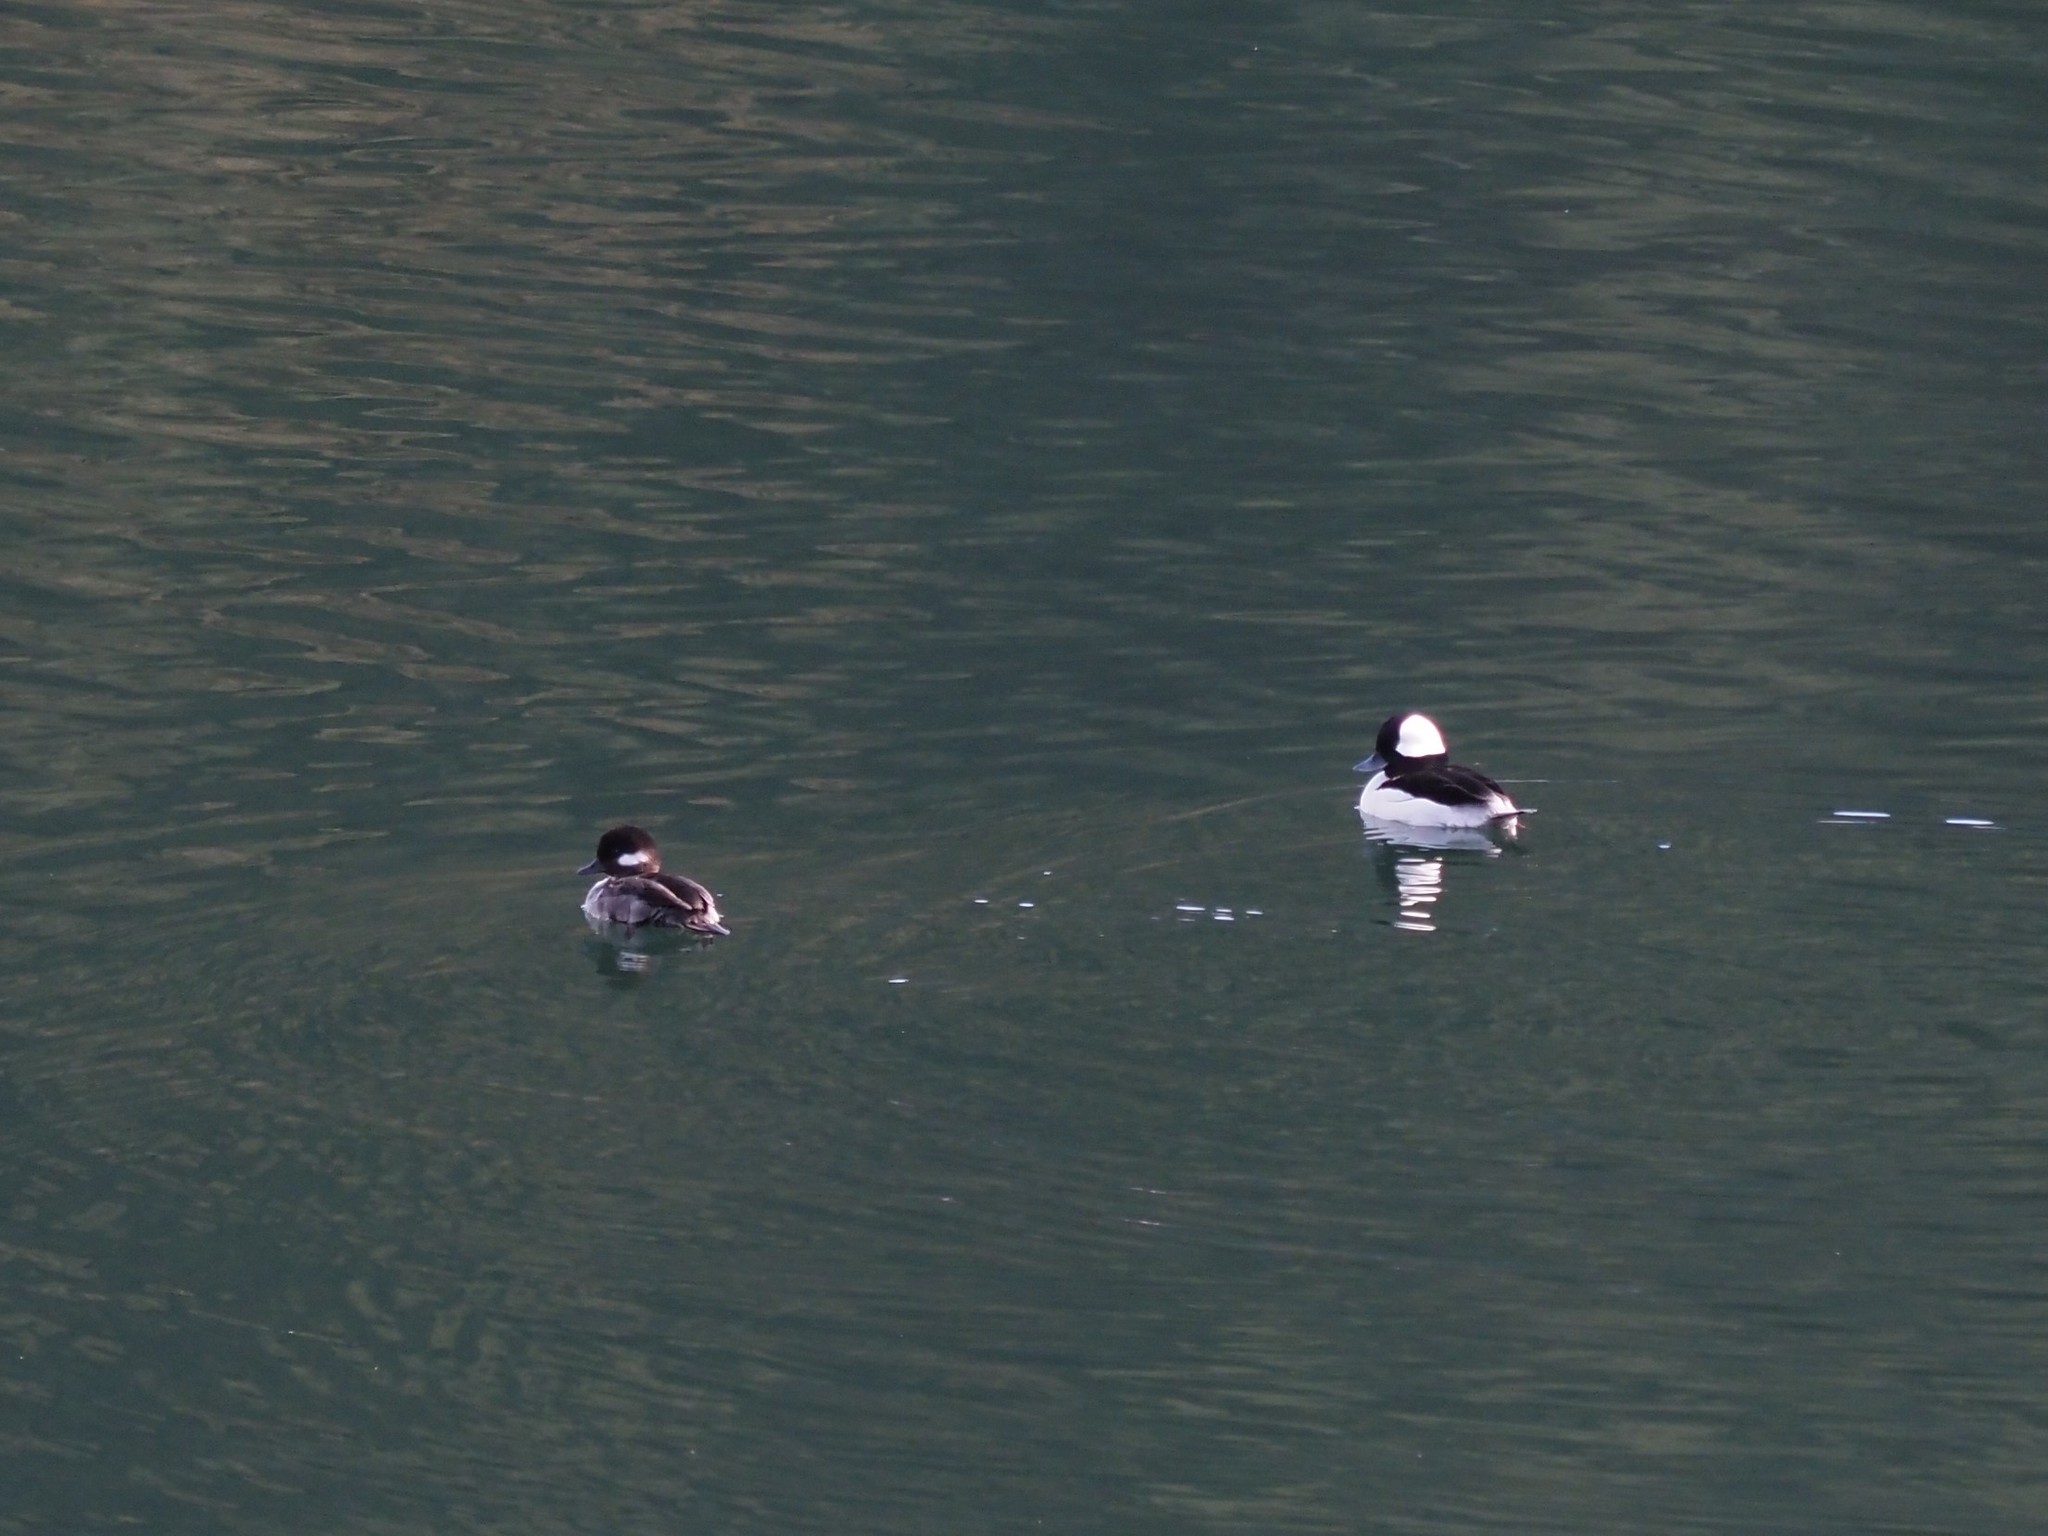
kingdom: Animalia
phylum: Chordata
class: Aves
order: Anseriformes
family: Anatidae
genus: Bucephala
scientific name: Bucephala albeola
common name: Bufflehead
